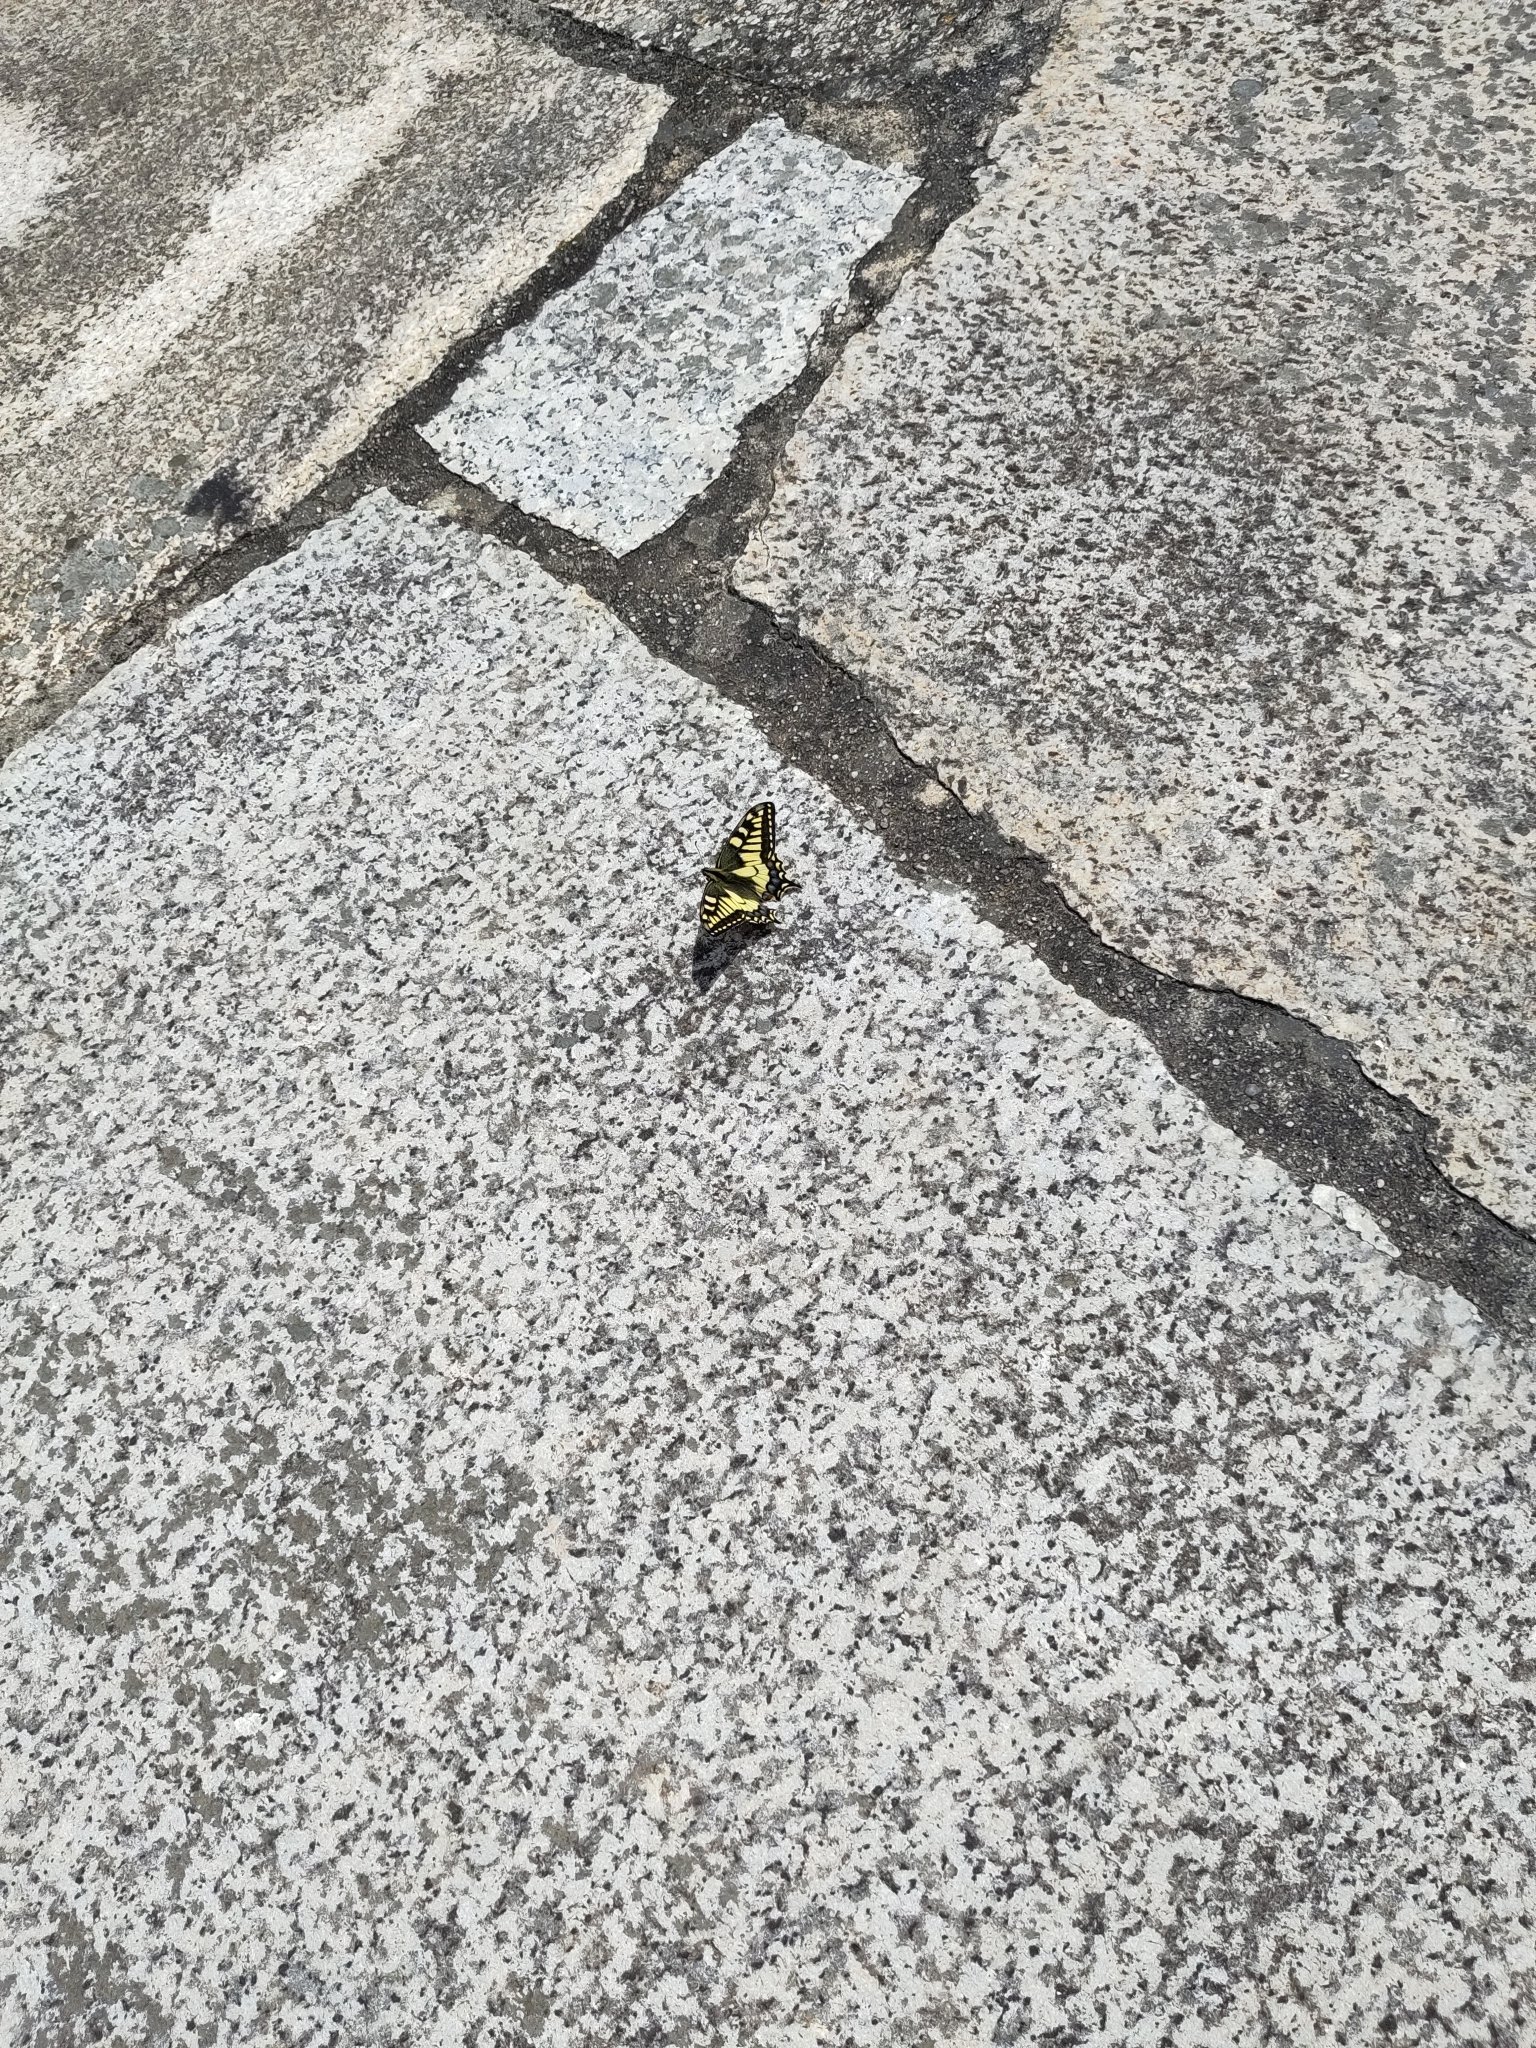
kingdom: Animalia
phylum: Arthropoda
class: Insecta
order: Lepidoptera
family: Papilionidae
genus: Papilio
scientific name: Papilio machaon
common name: Swallowtail
